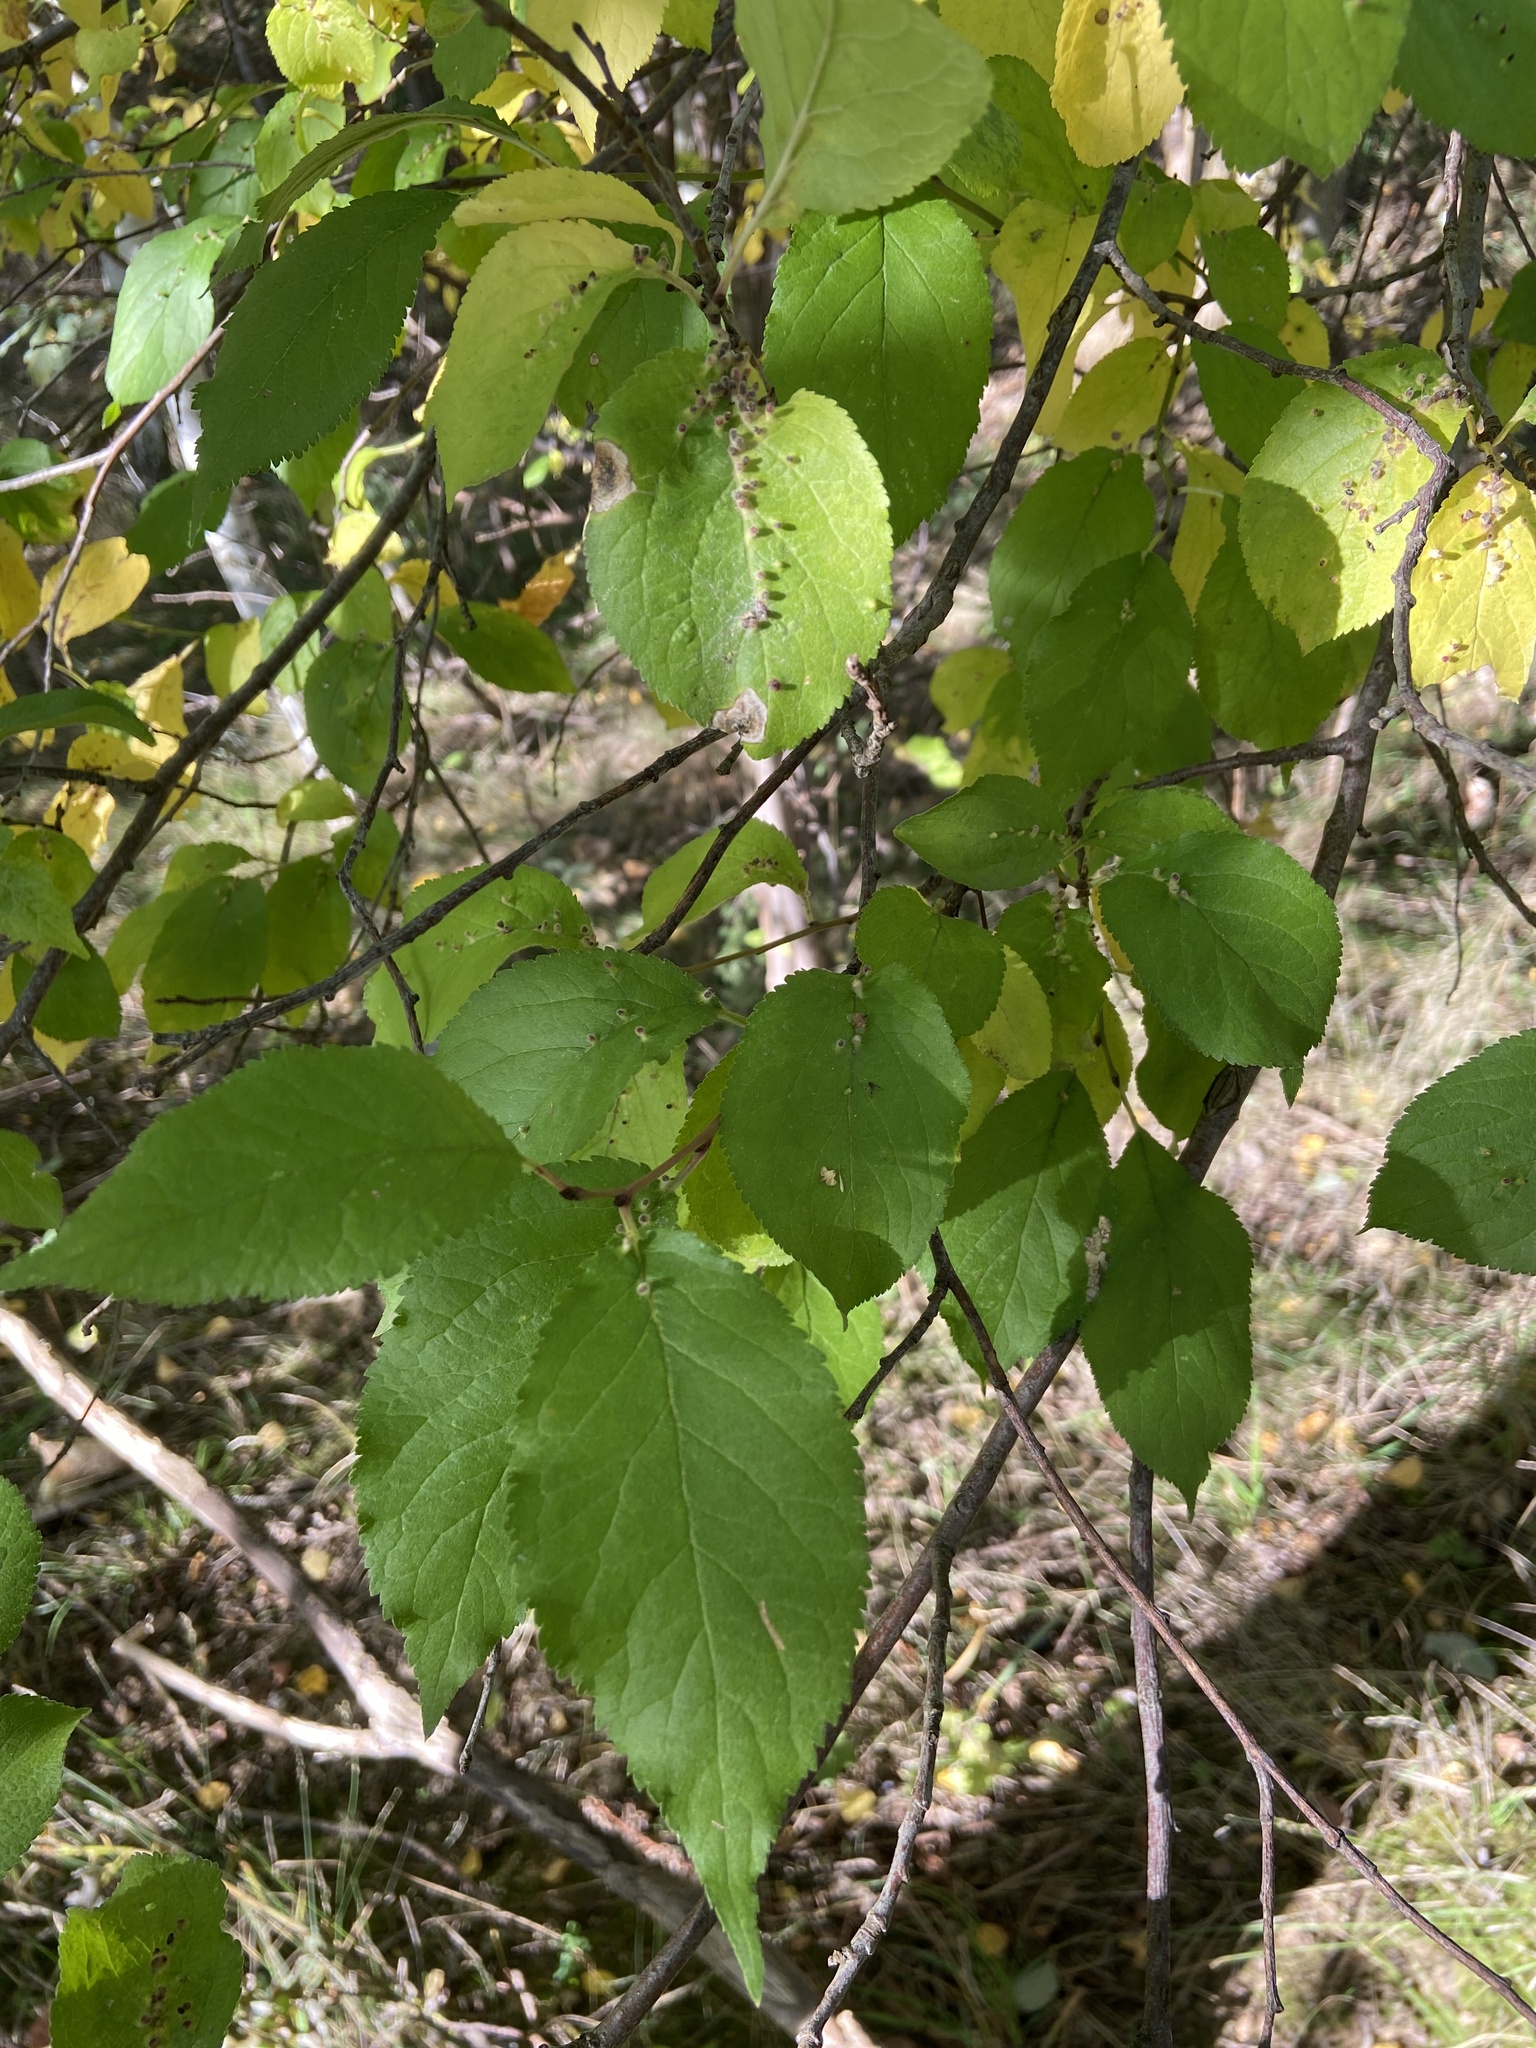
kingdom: Animalia
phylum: Arthropoda
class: Arachnida
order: Trombidiformes
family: Eriophyidae
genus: Phyllocoptes
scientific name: Phyllocoptes eupadi
